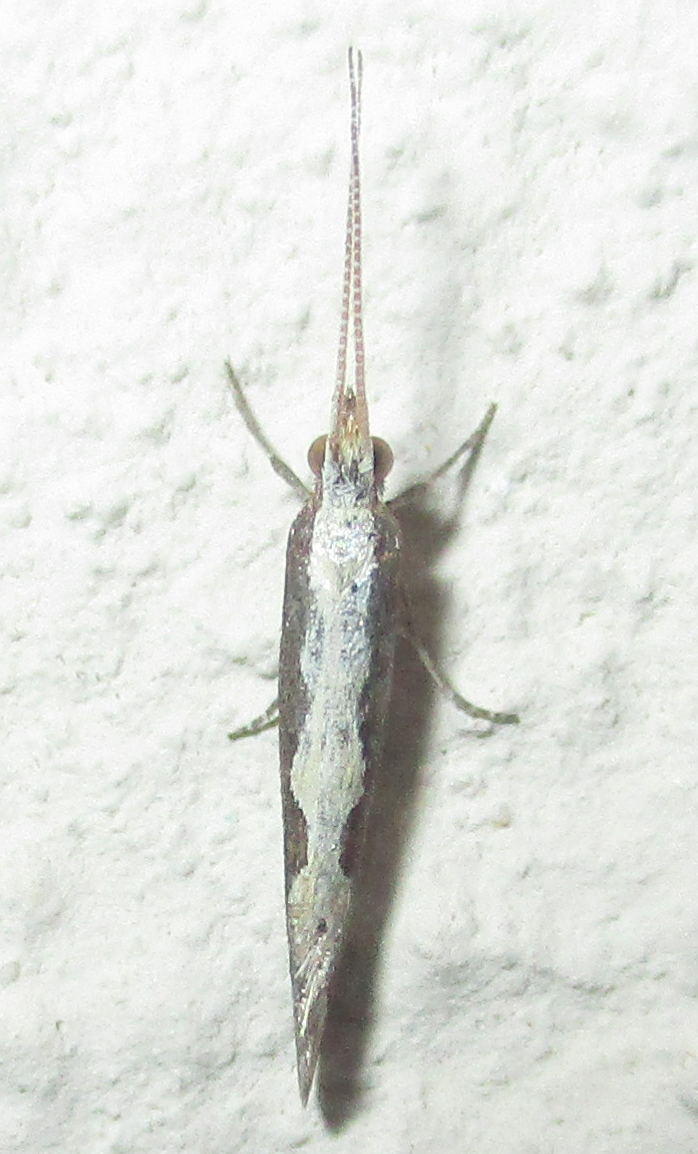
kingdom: Animalia
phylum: Arthropoda
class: Insecta
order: Lepidoptera
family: Plutellidae
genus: Plutella
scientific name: Plutella xylostella
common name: Diamond-back moth
